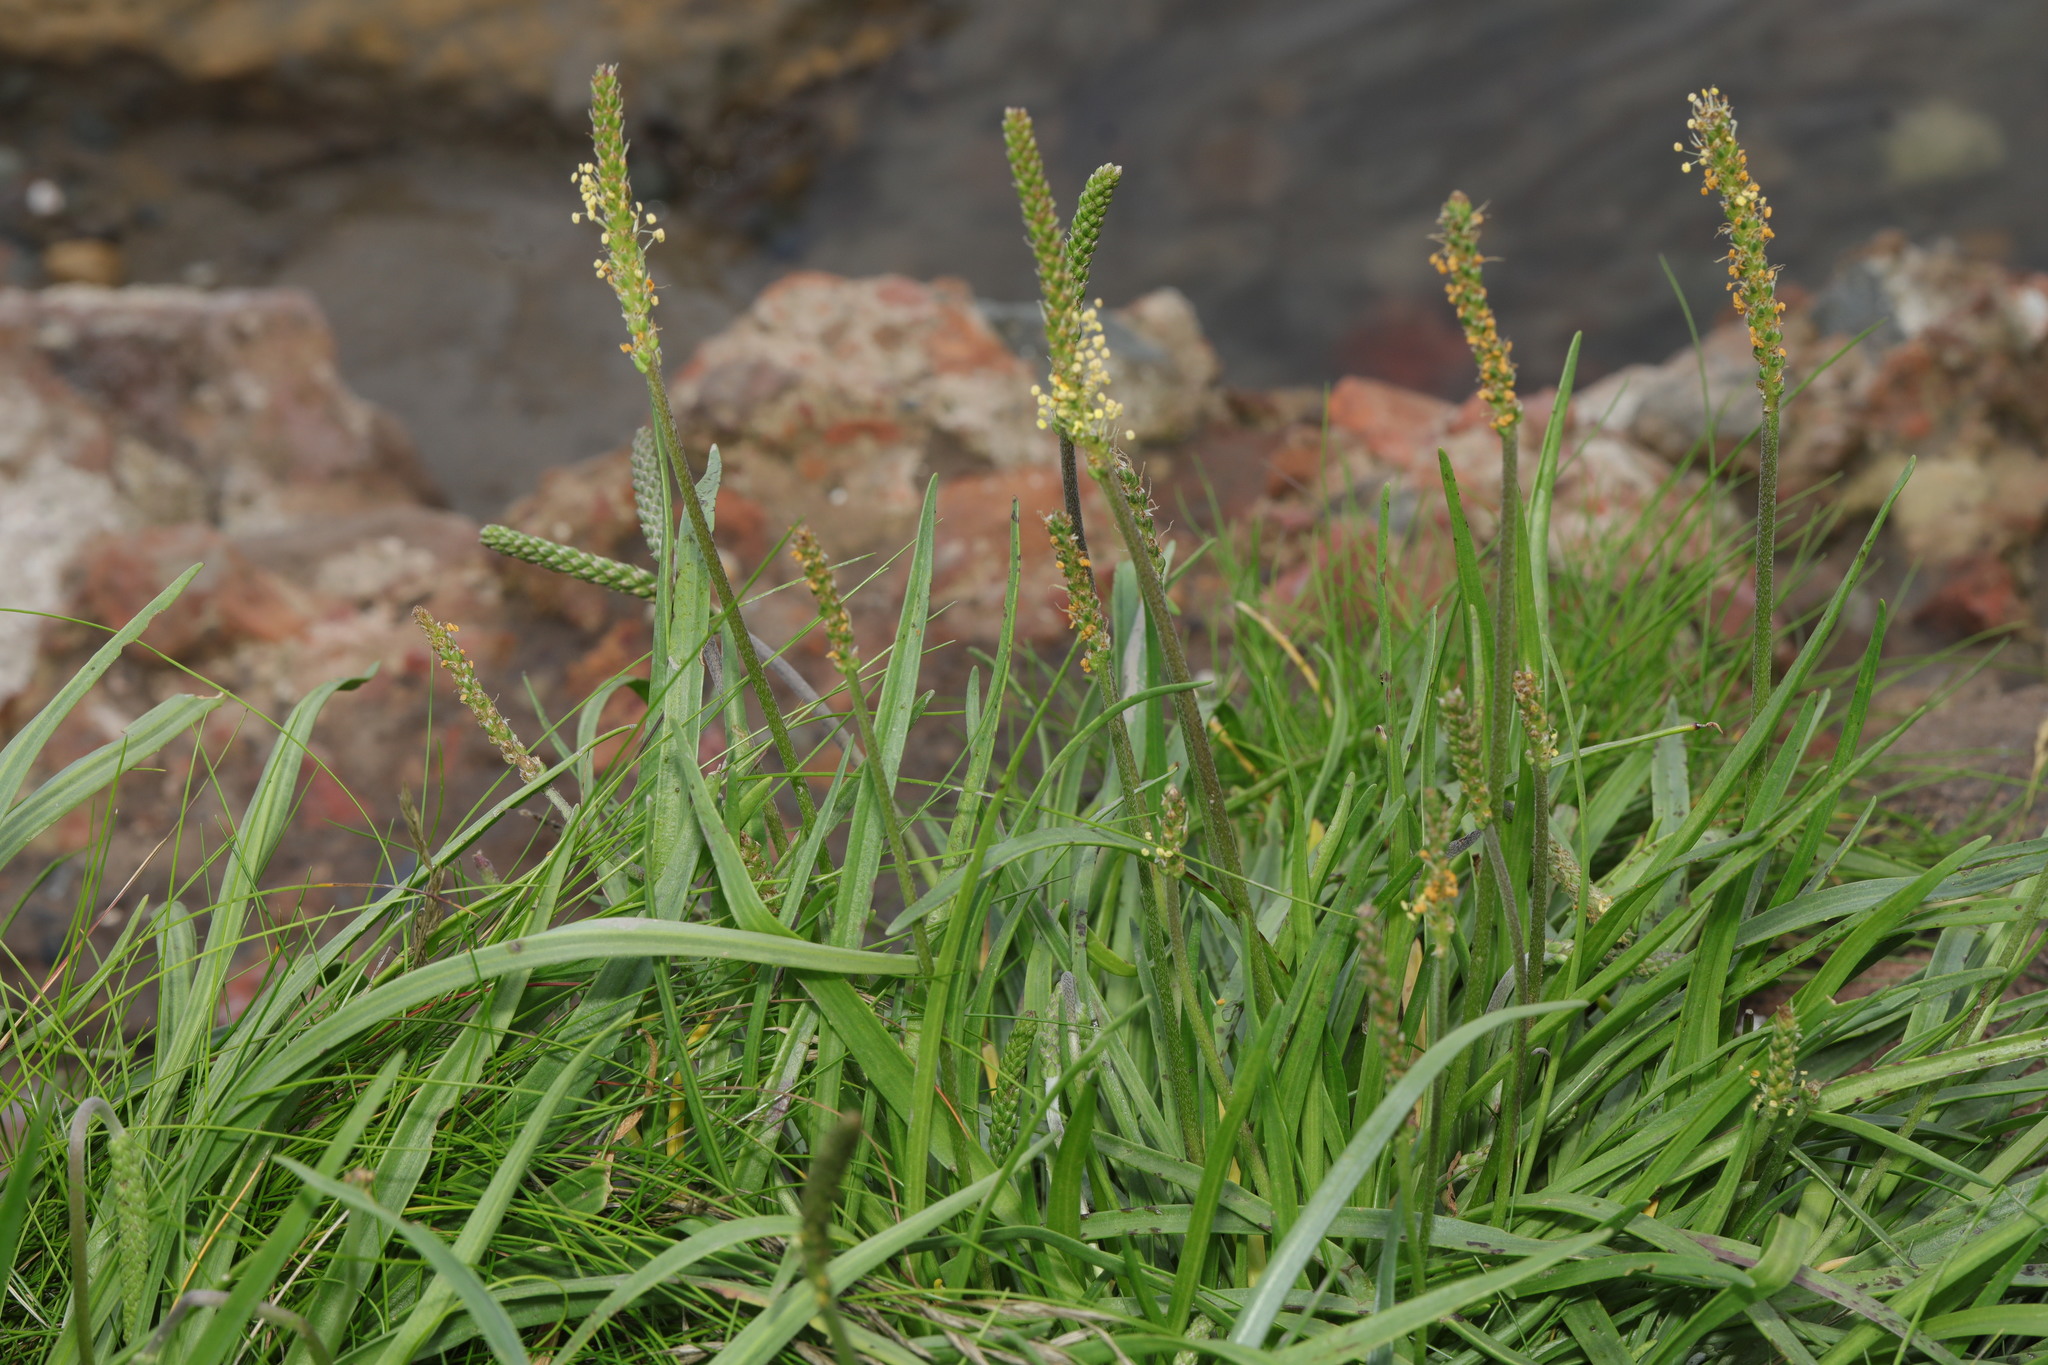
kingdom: Plantae
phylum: Tracheophyta
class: Magnoliopsida
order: Lamiales
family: Plantaginaceae
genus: Plantago
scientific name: Plantago maritima
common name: Sea plantain
